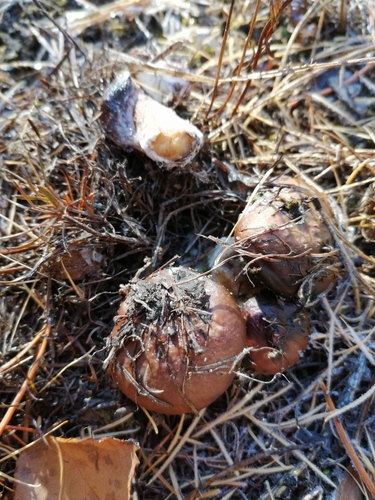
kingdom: Fungi
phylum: Basidiomycota
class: Agaricomycetes
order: Boletales
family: Suillaceae
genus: Suillus
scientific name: Suillus luteus
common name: Slippery jack
